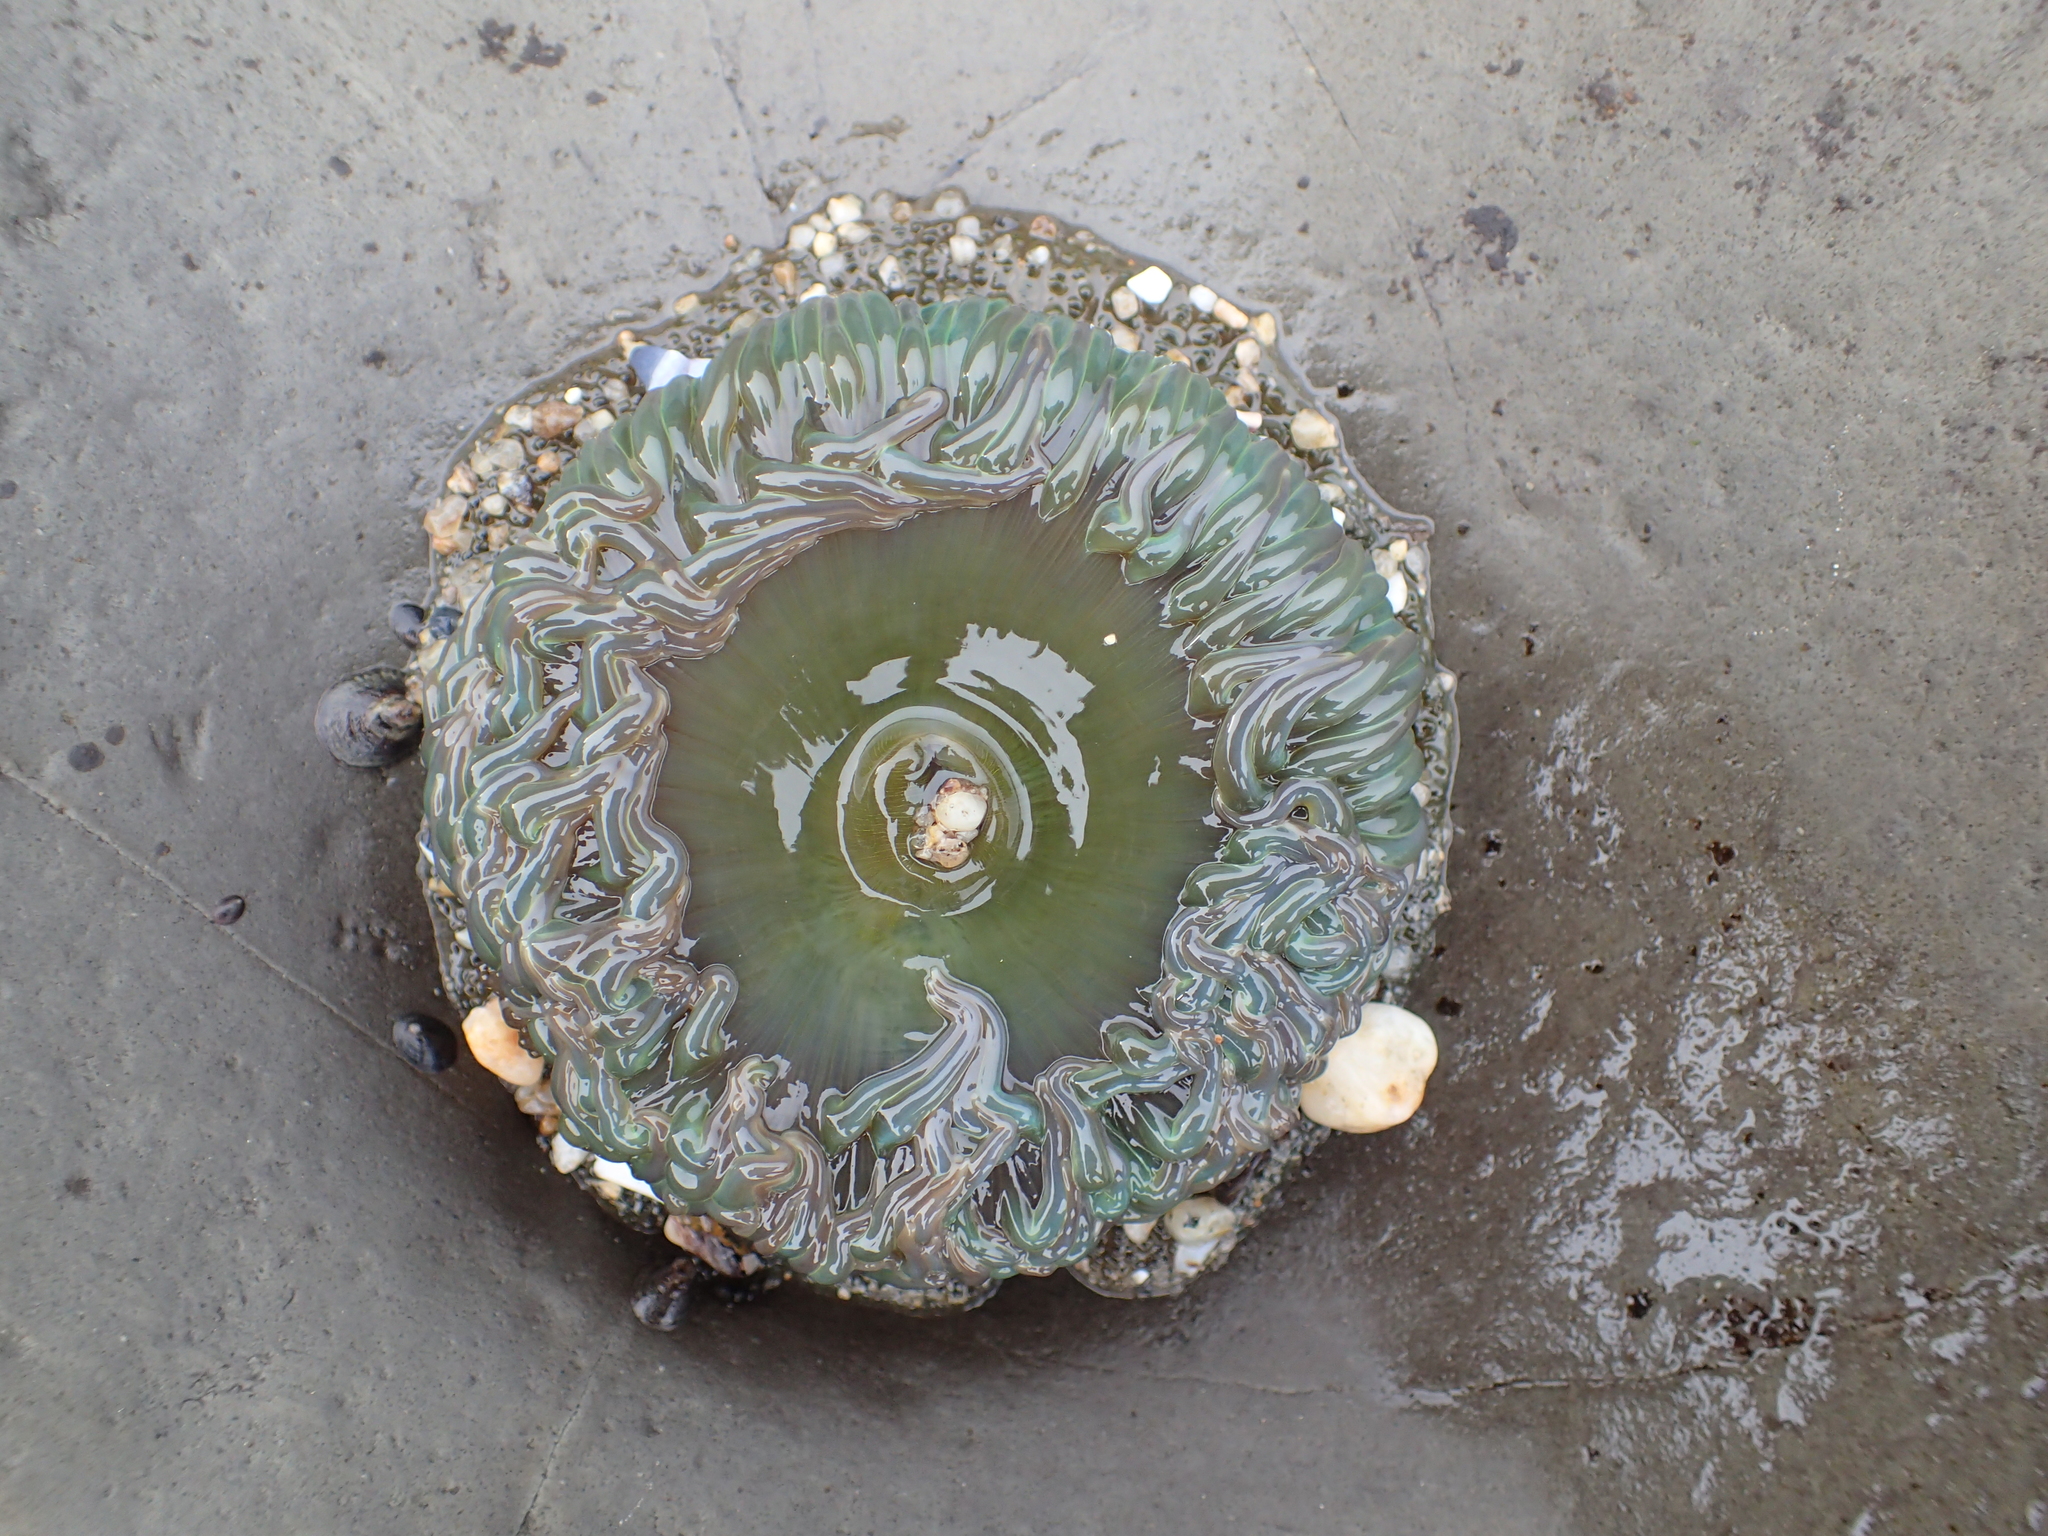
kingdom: Animalia
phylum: Cnidaria
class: Anthozoa
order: Actiniaria
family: Actiniidae
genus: Anthopleura
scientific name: Anthopleura xanthogrammica
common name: Giant green anemone
